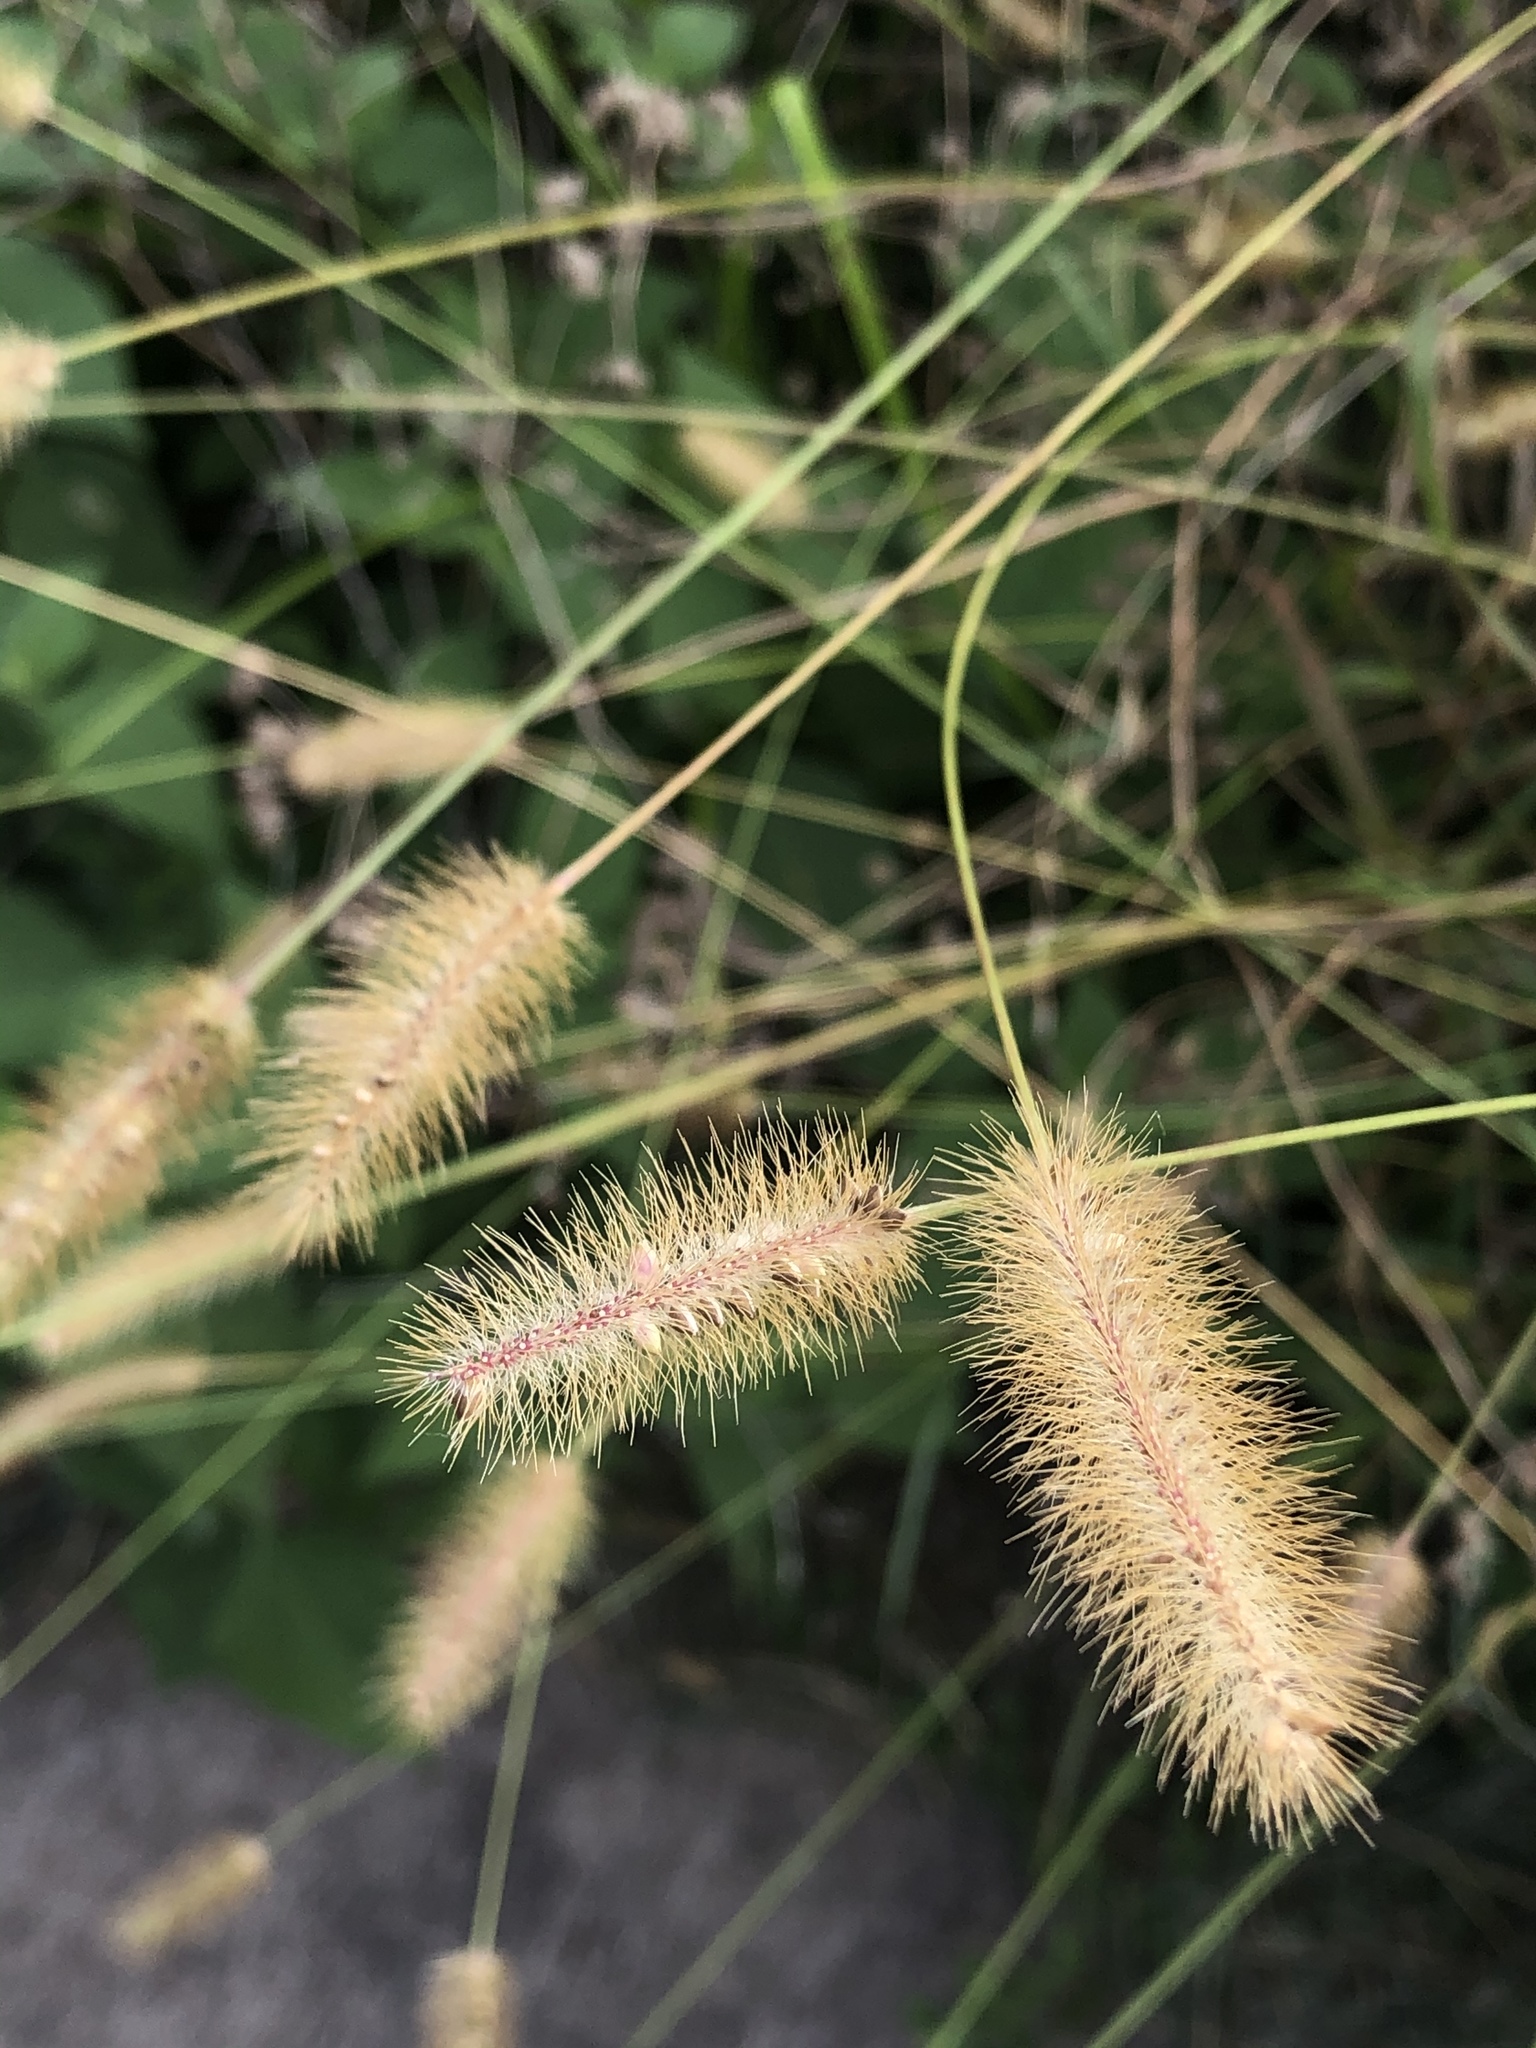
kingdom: Plantae
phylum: Tracheophyta
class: Liliopsida
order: Poales
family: Poaceae
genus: Setaria
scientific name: Setaria parviflora
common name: Knotroot bristle-grass
